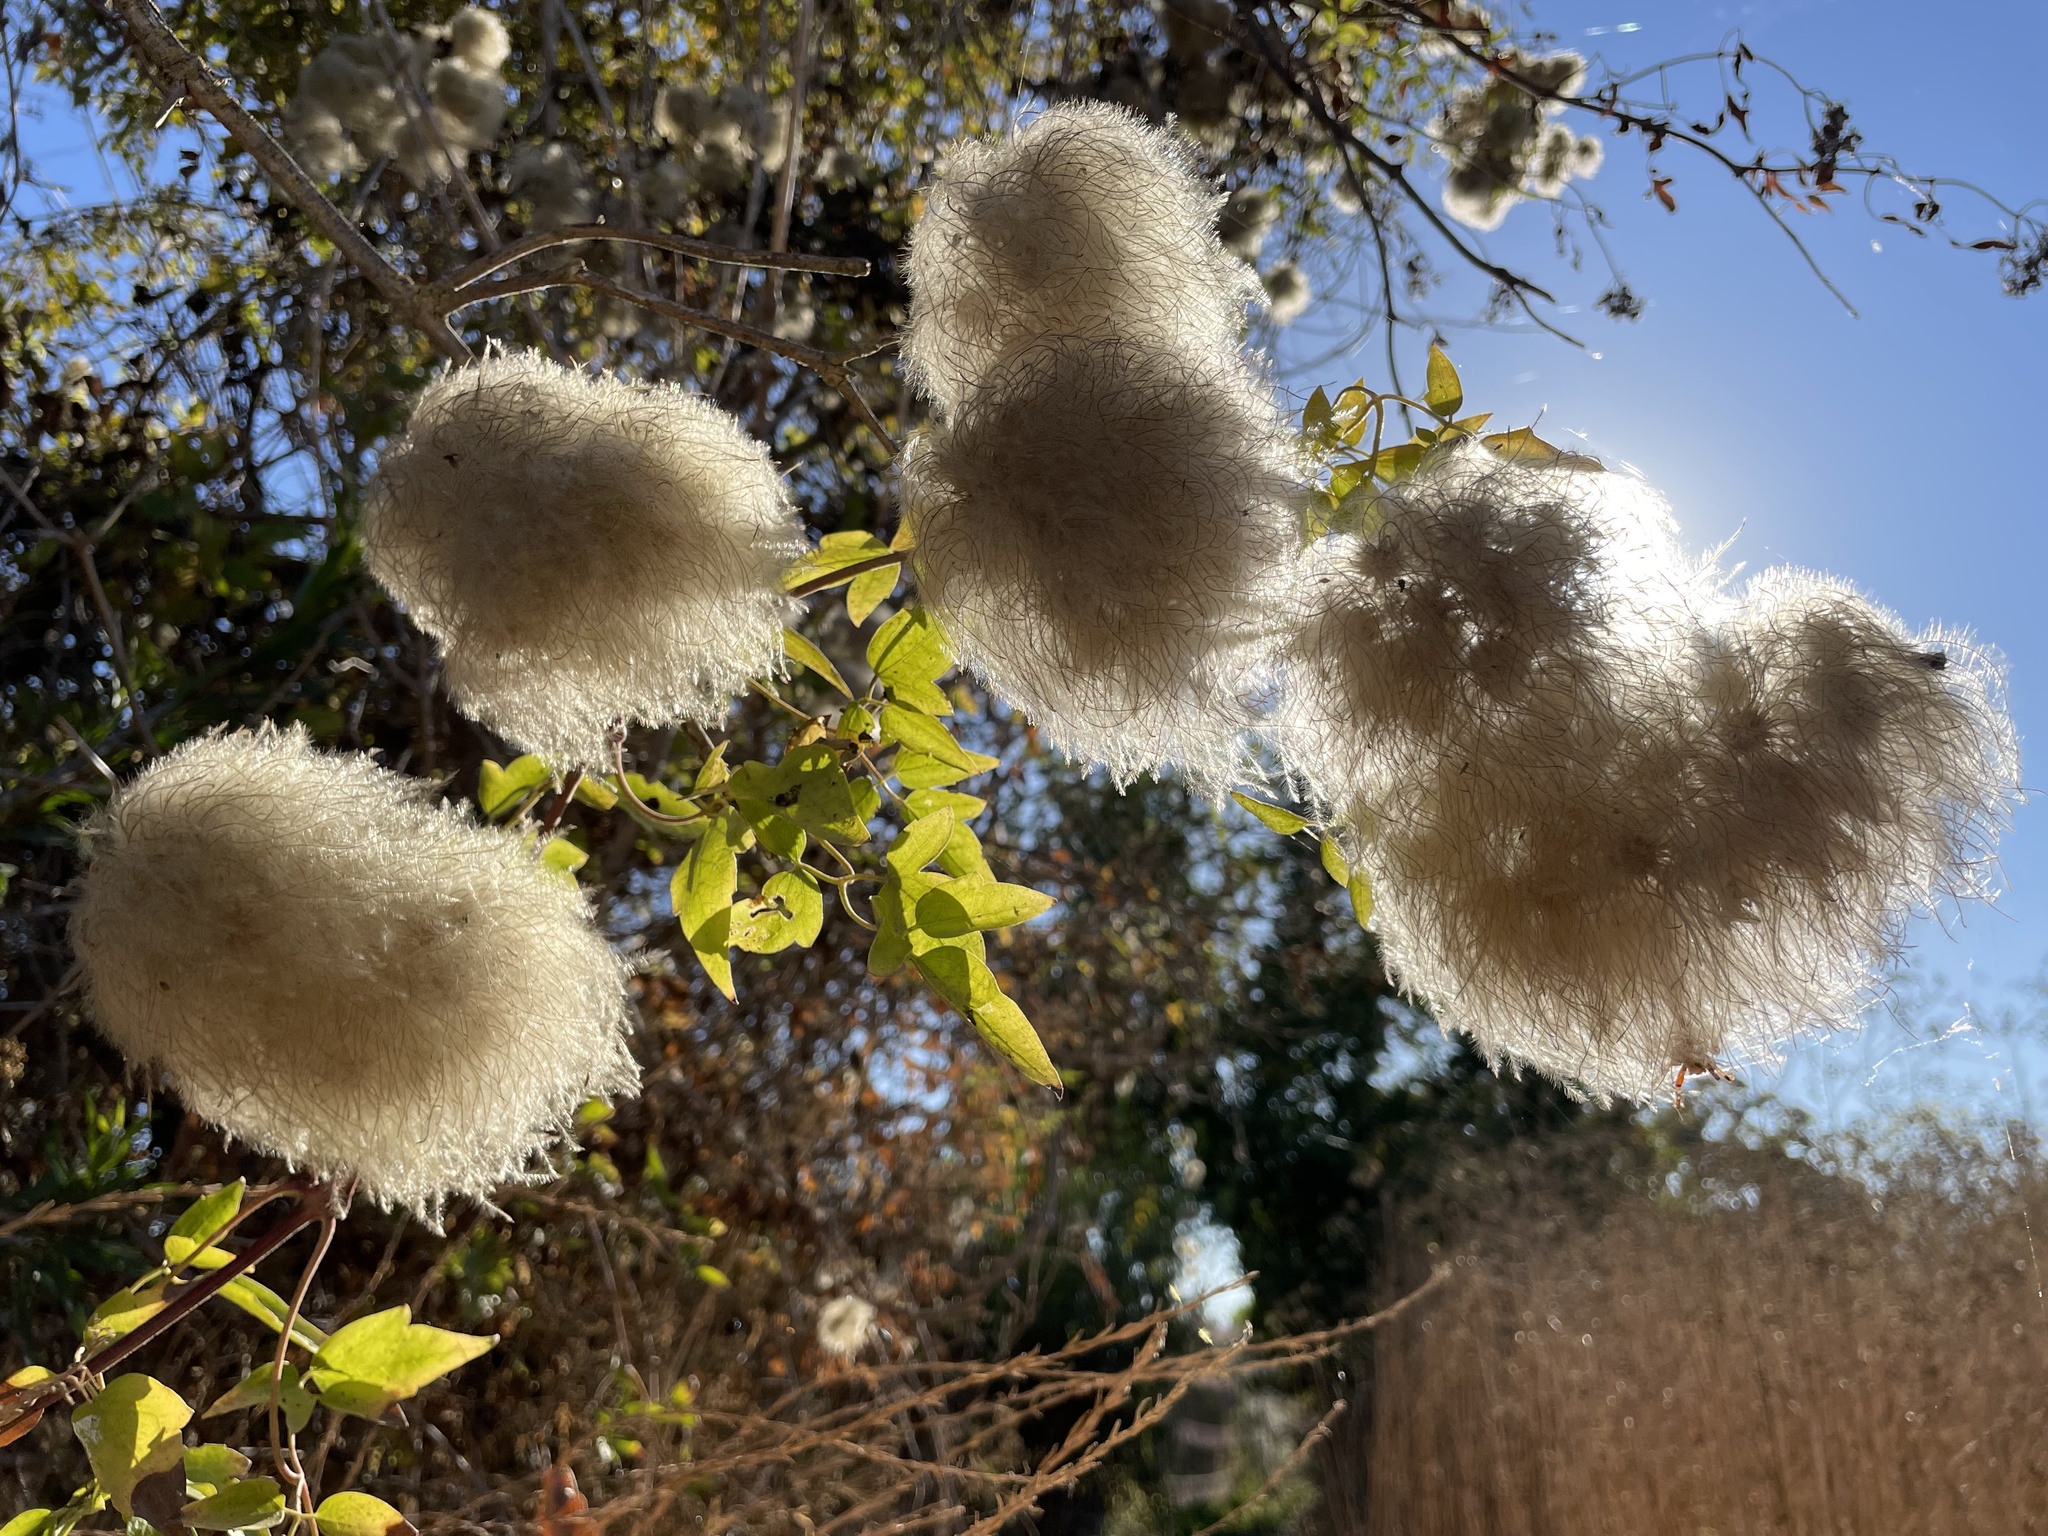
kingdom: Plantae
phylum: Tracheophyta
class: Magnoliopsida
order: Ranunculales
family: Ranunculaceae
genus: Clematis
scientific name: Clematis lasiantha
